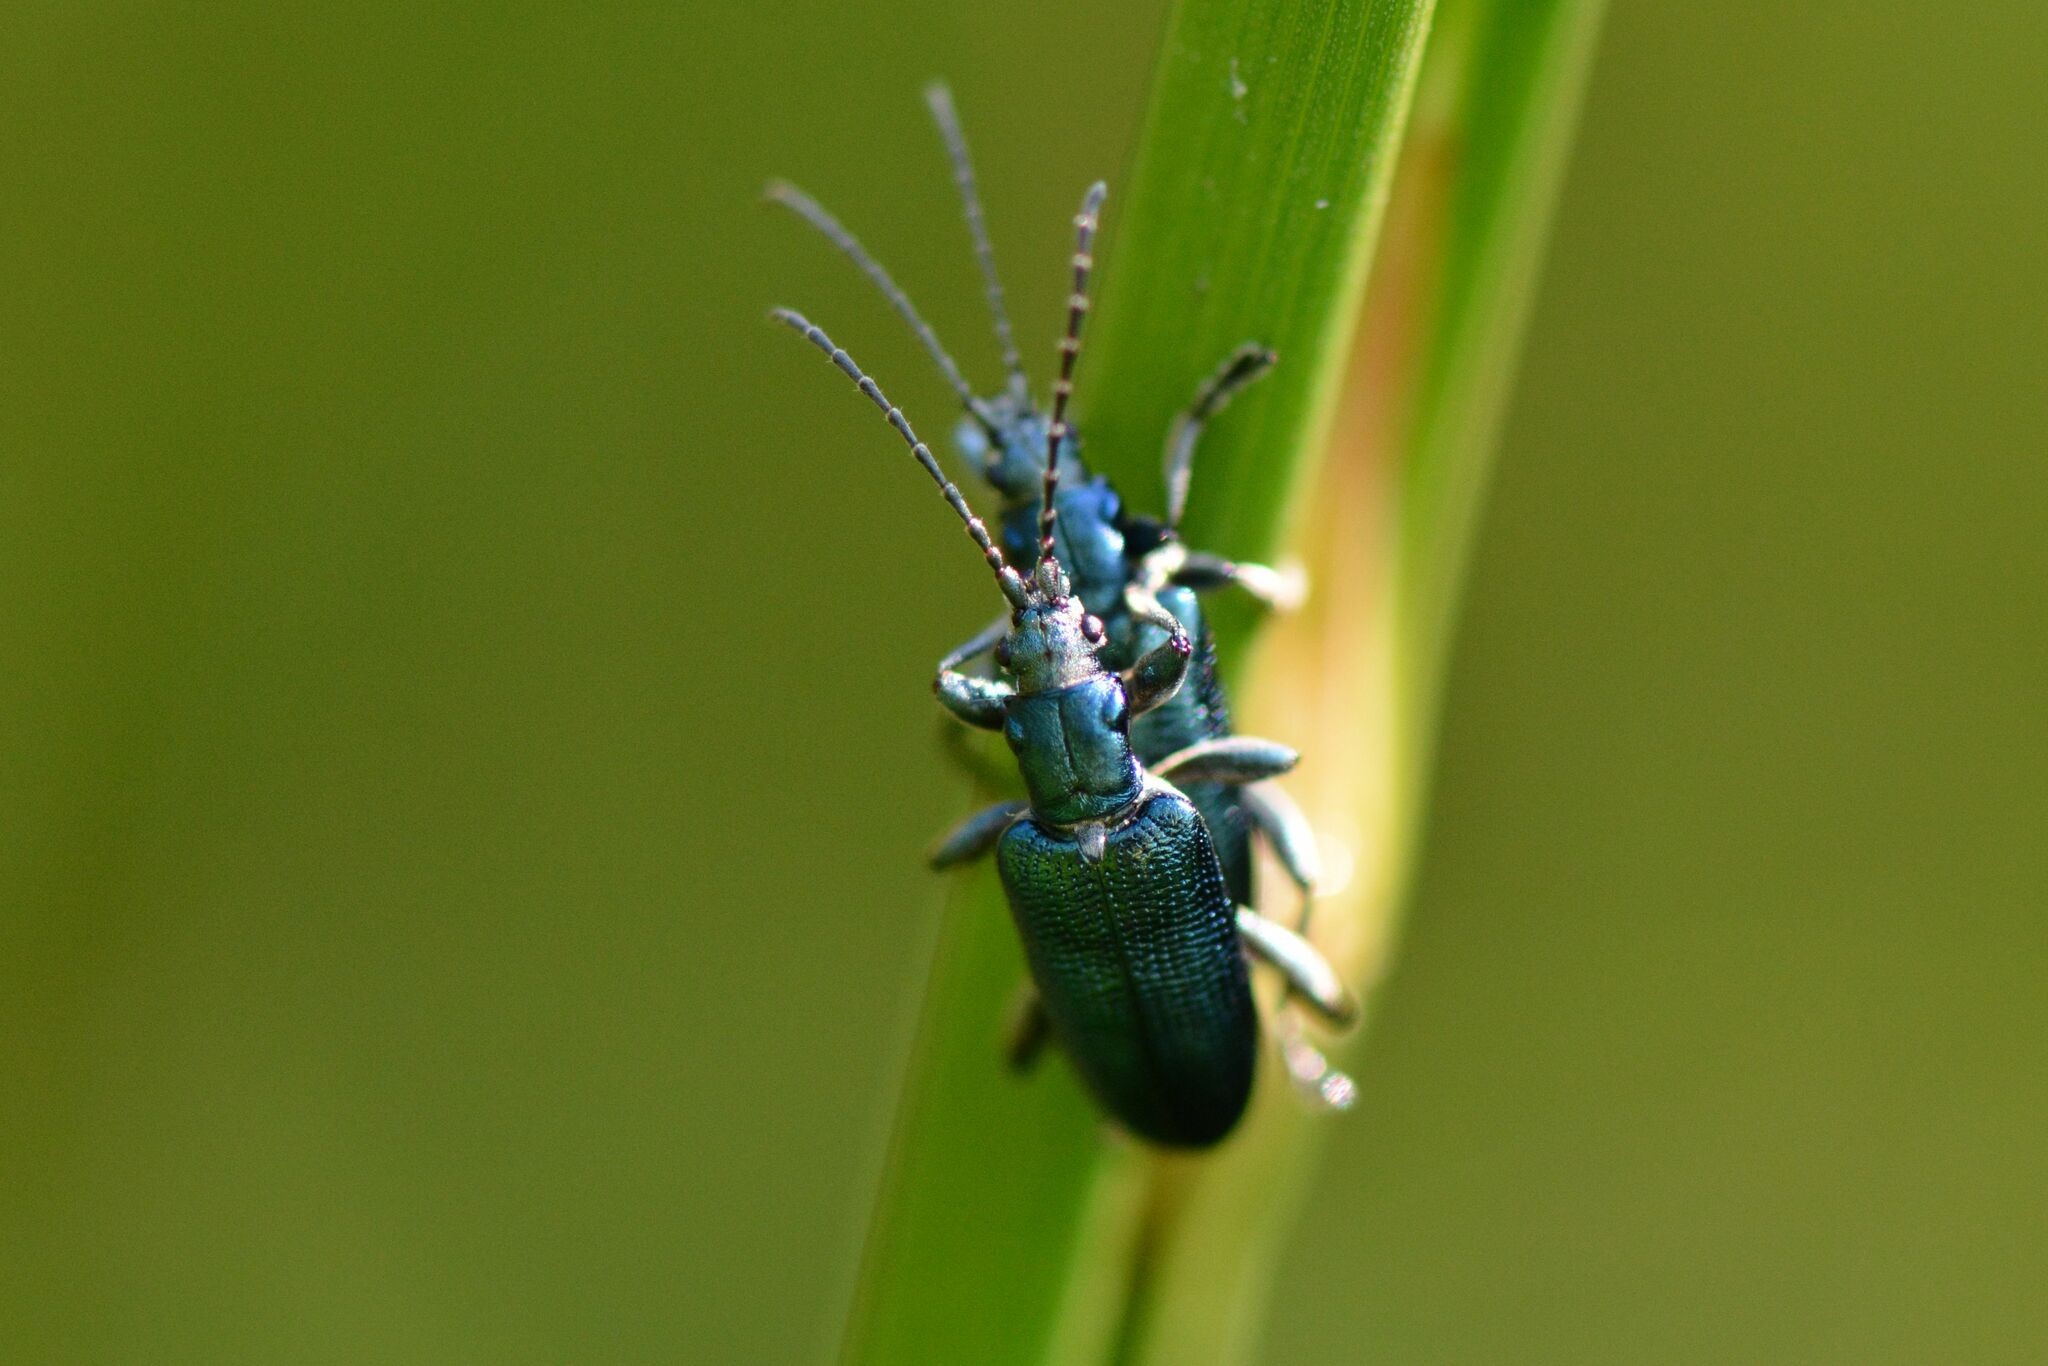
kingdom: Animalia
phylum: Arthropoda
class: Insecta
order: Coleoptera
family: Chrysomelidae
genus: Plateumaris
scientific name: Plateumaris sericea
